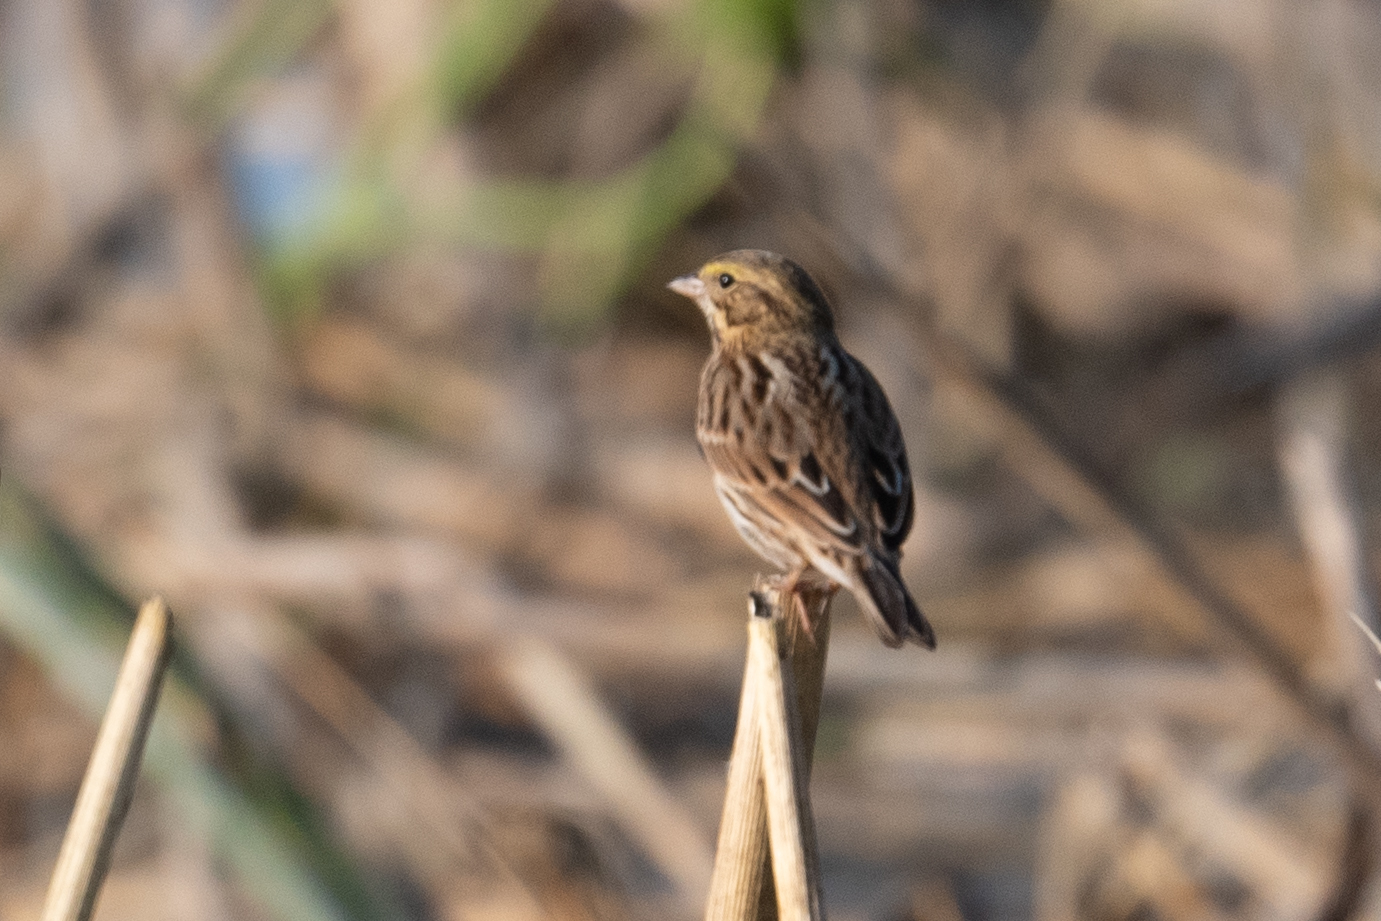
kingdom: Animalia
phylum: Chordata
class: Aves
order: Passeriformes
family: Passerellidae
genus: Passerculus
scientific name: Passerculus sandwichensis
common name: Savannah sparrow
